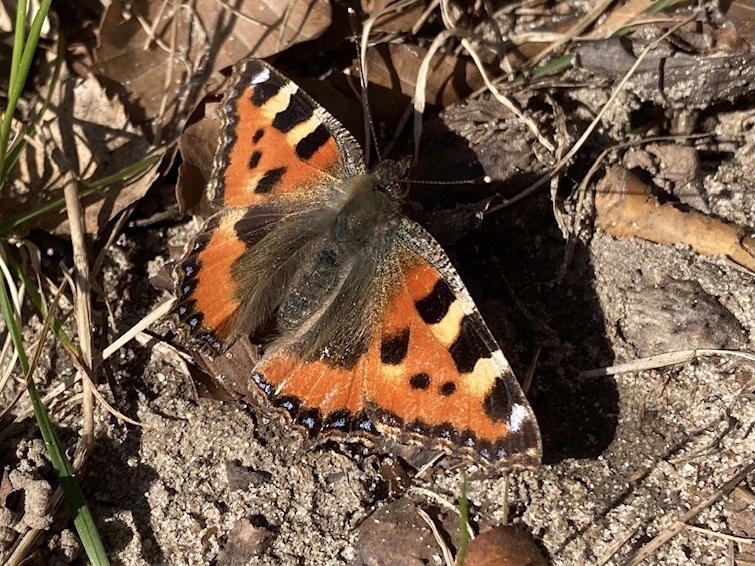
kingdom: Animalia
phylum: Arthropoda
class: Insecta
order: Lepidoptera
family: Nymphalidae
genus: Aglais
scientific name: Aglais urticae
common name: Small tortoiseshell
